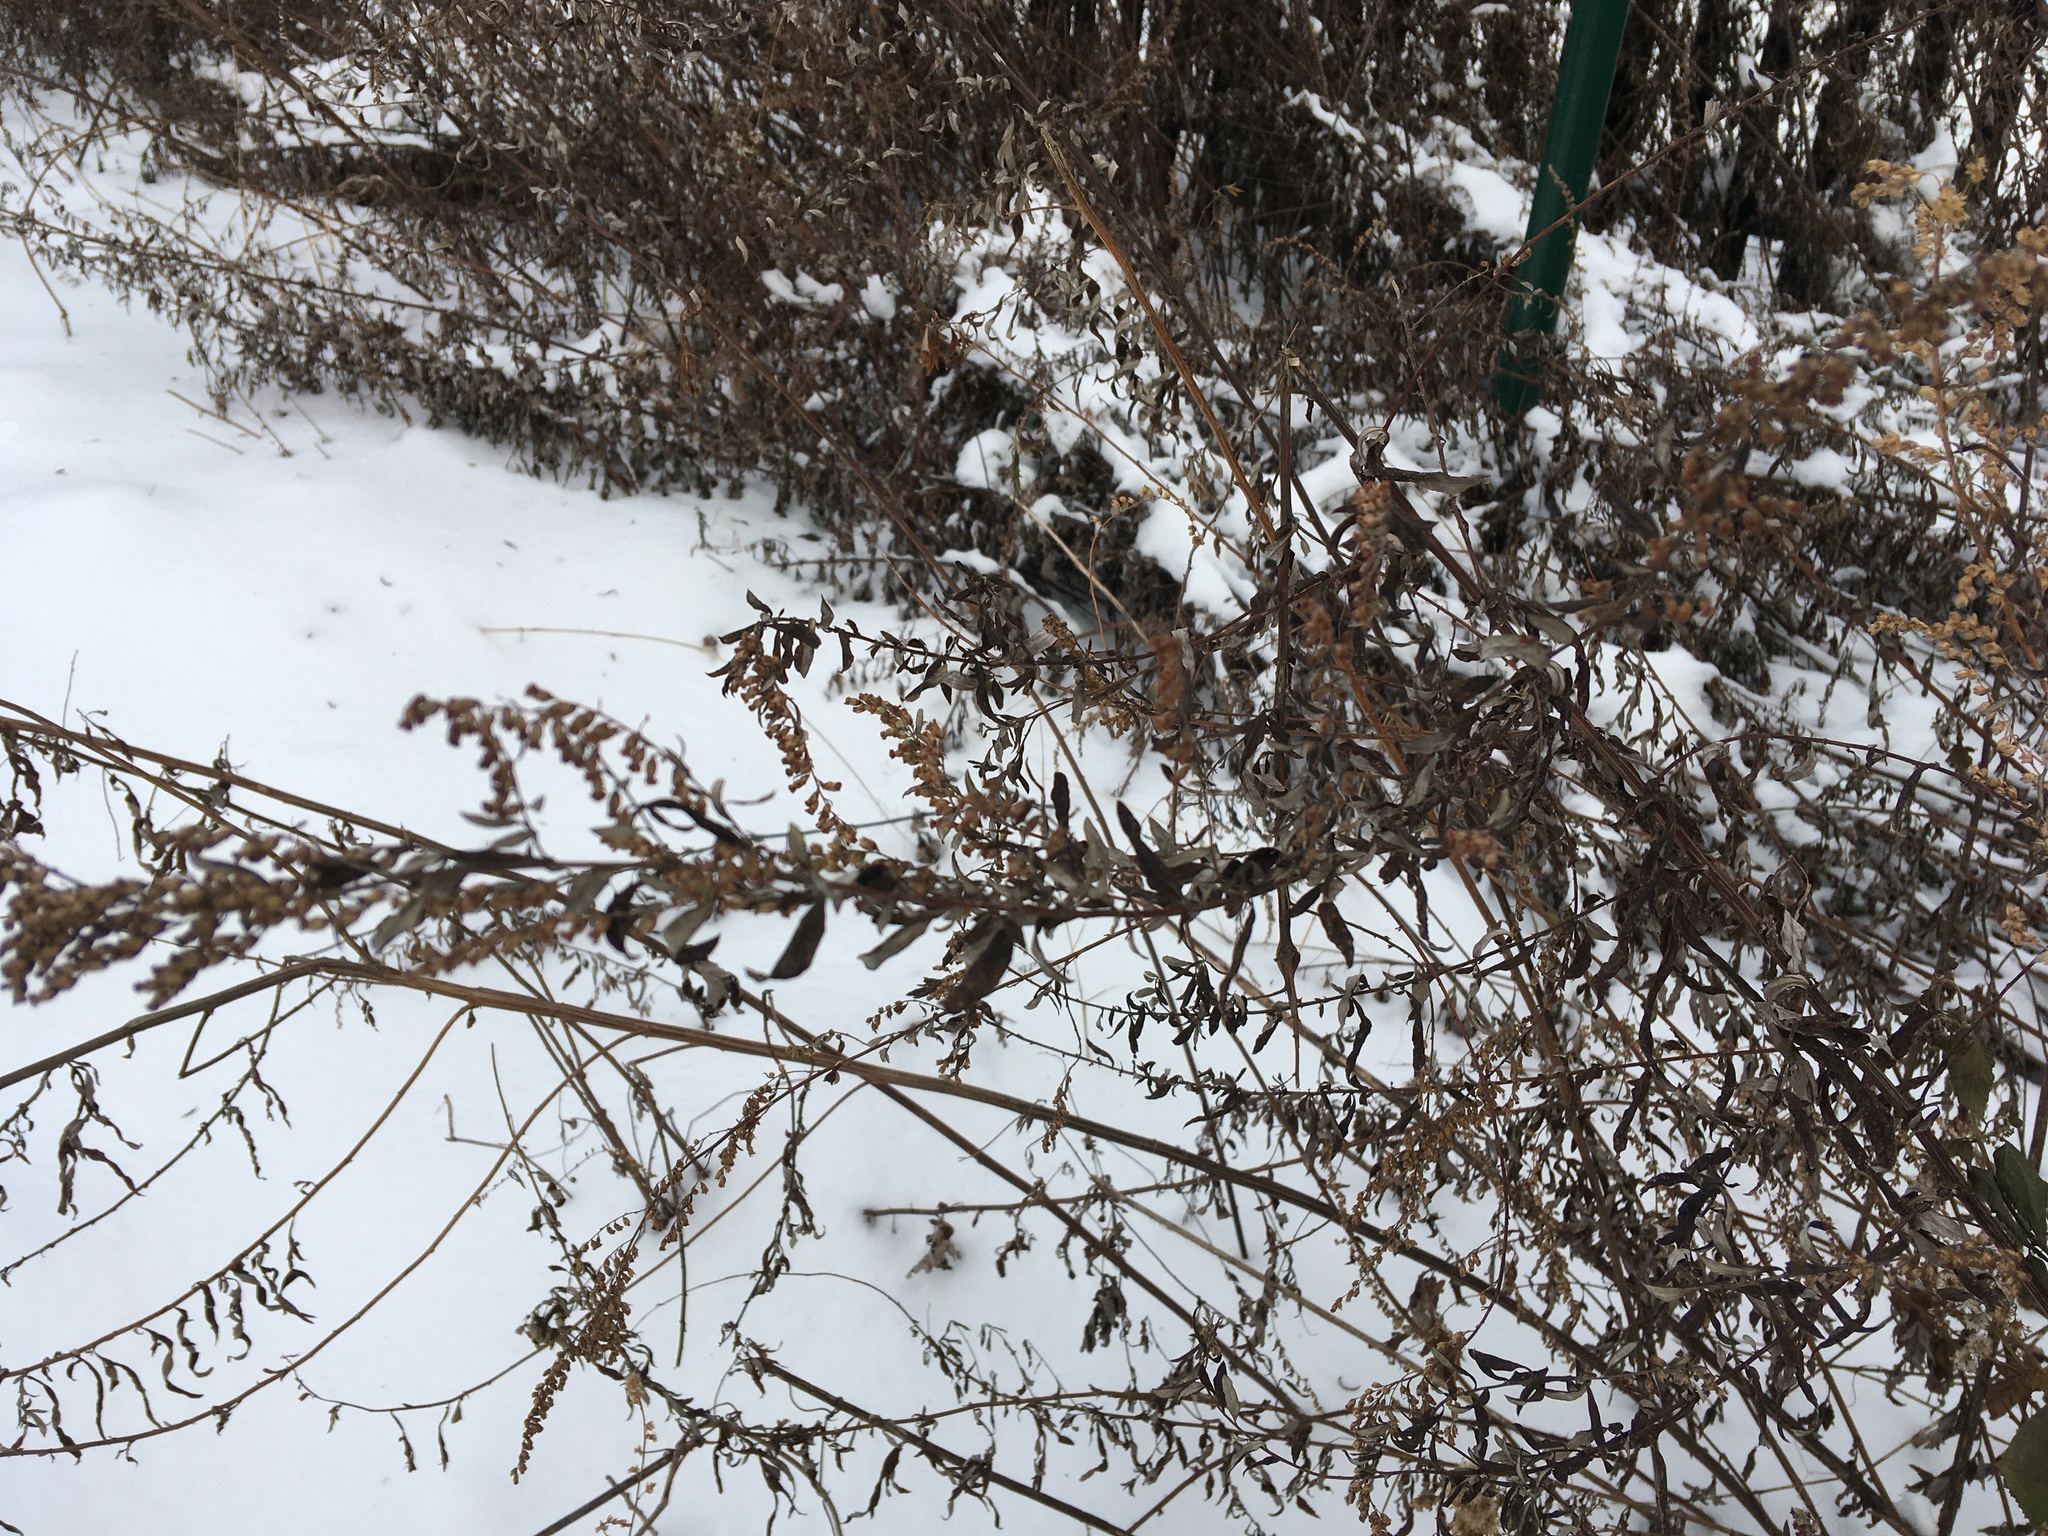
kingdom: Plantae
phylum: Tracheophyta
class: Magnoliopsida
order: Asterales
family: Asteraceae
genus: Artemisia
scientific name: Artemisia vulgaris
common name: Mugwort
